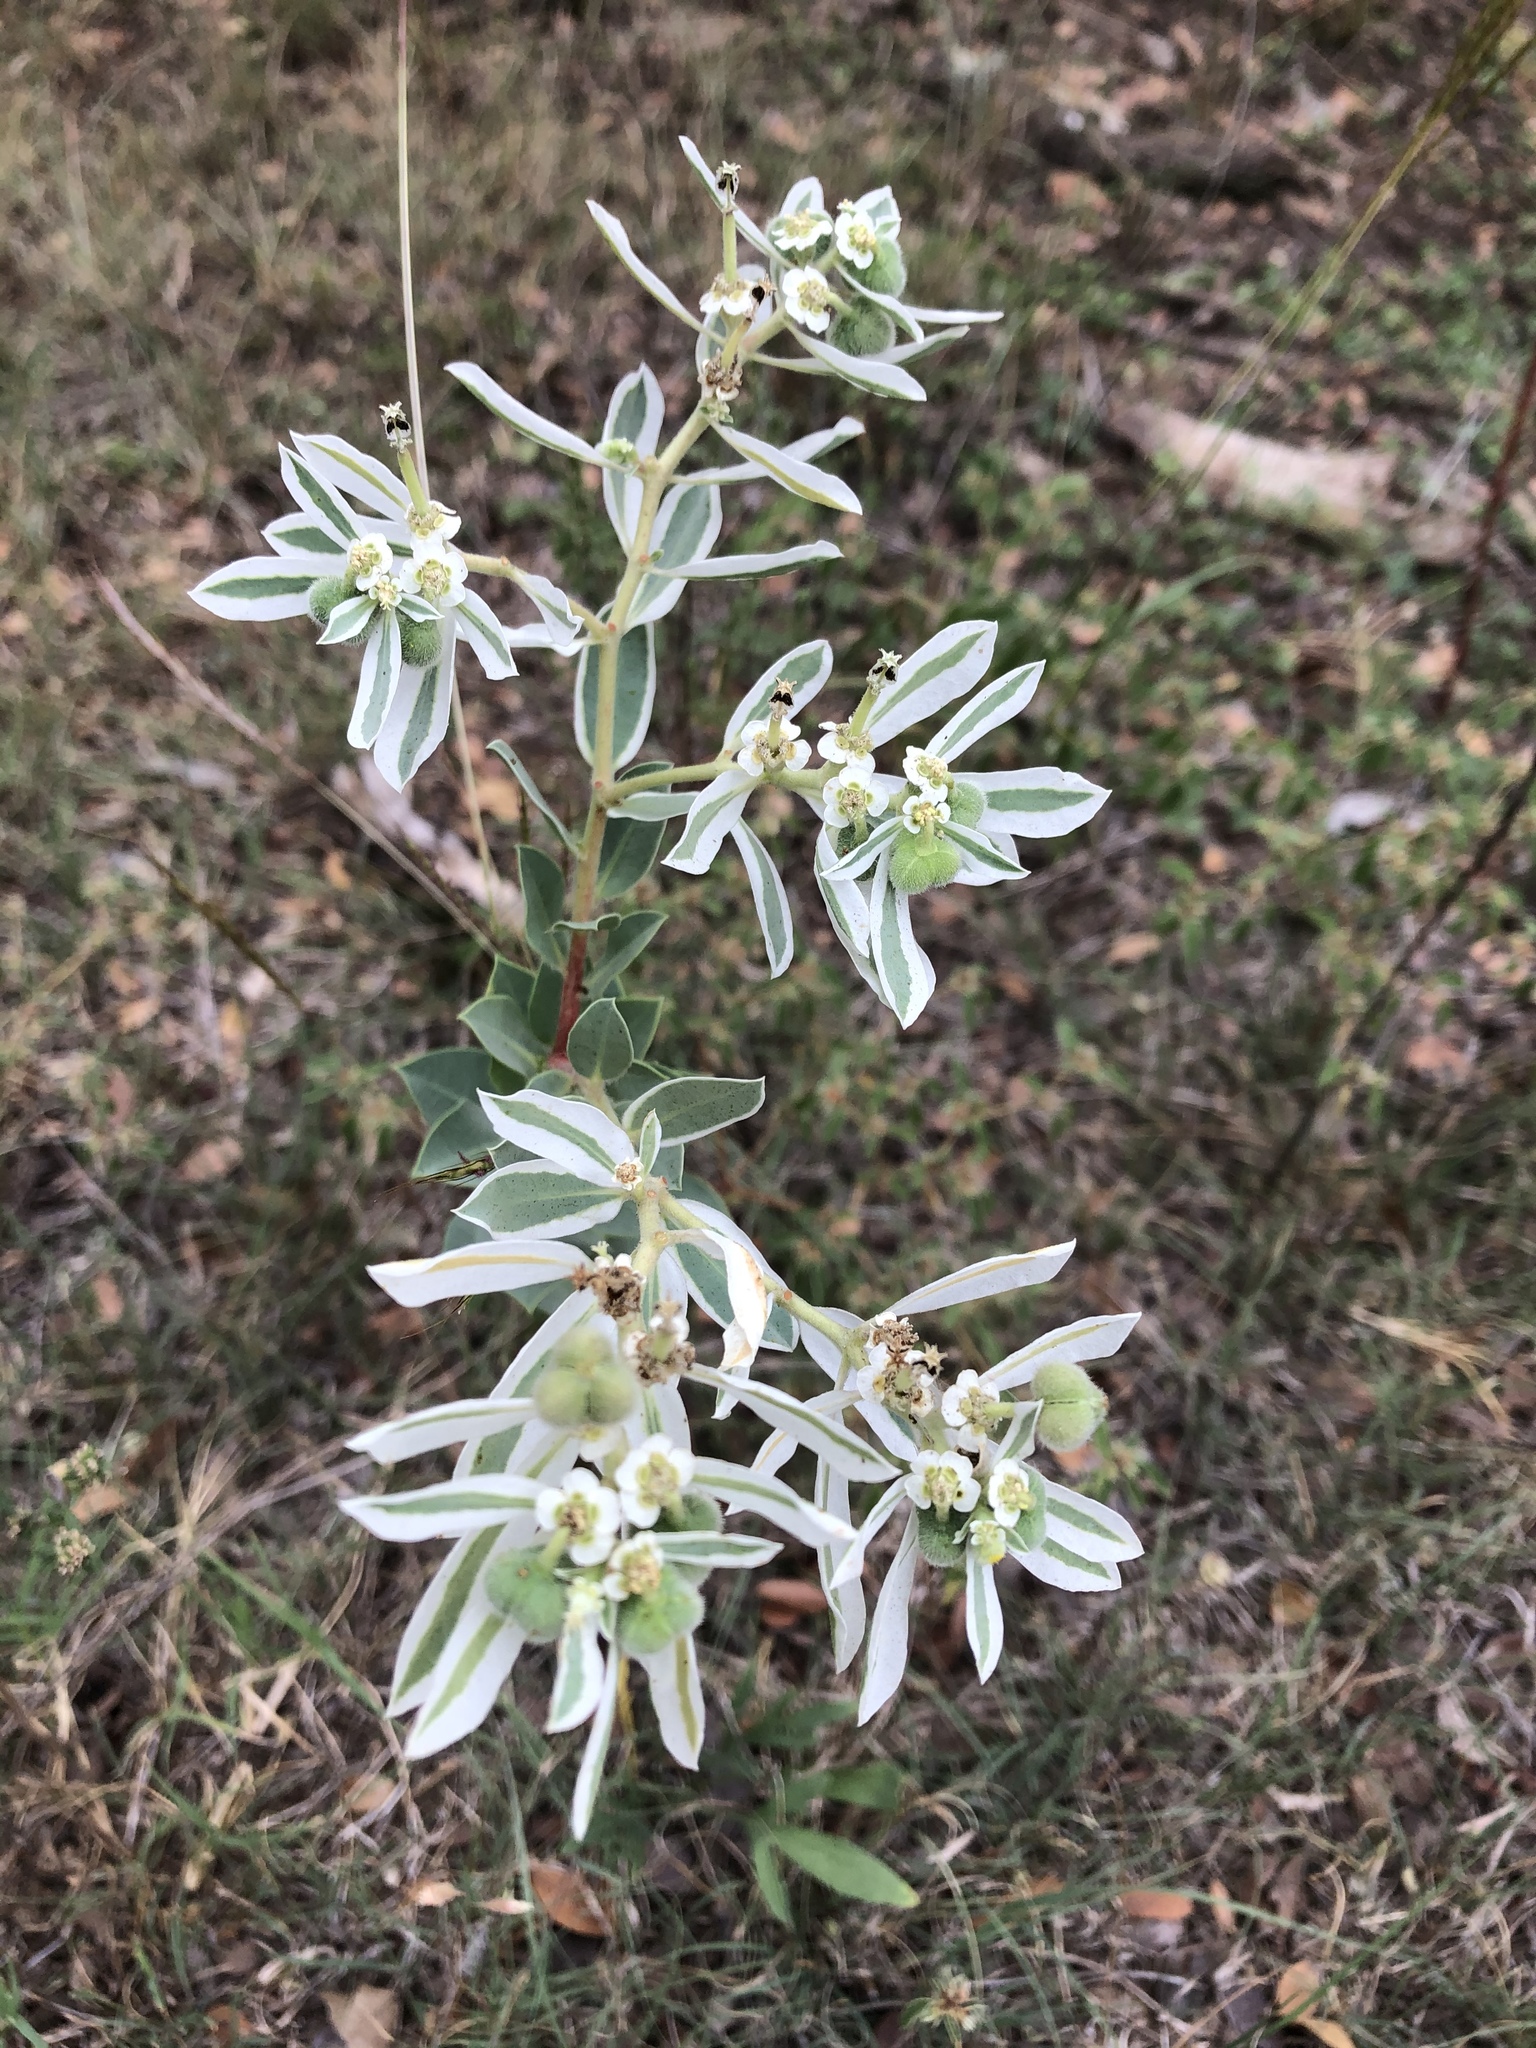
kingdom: Plantae
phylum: Tracheophyta
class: Magnoliopsida
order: Malpighiales
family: Euphorbiaceae
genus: Euphorbia
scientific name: Euphorbia marginata
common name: Ghostweed
